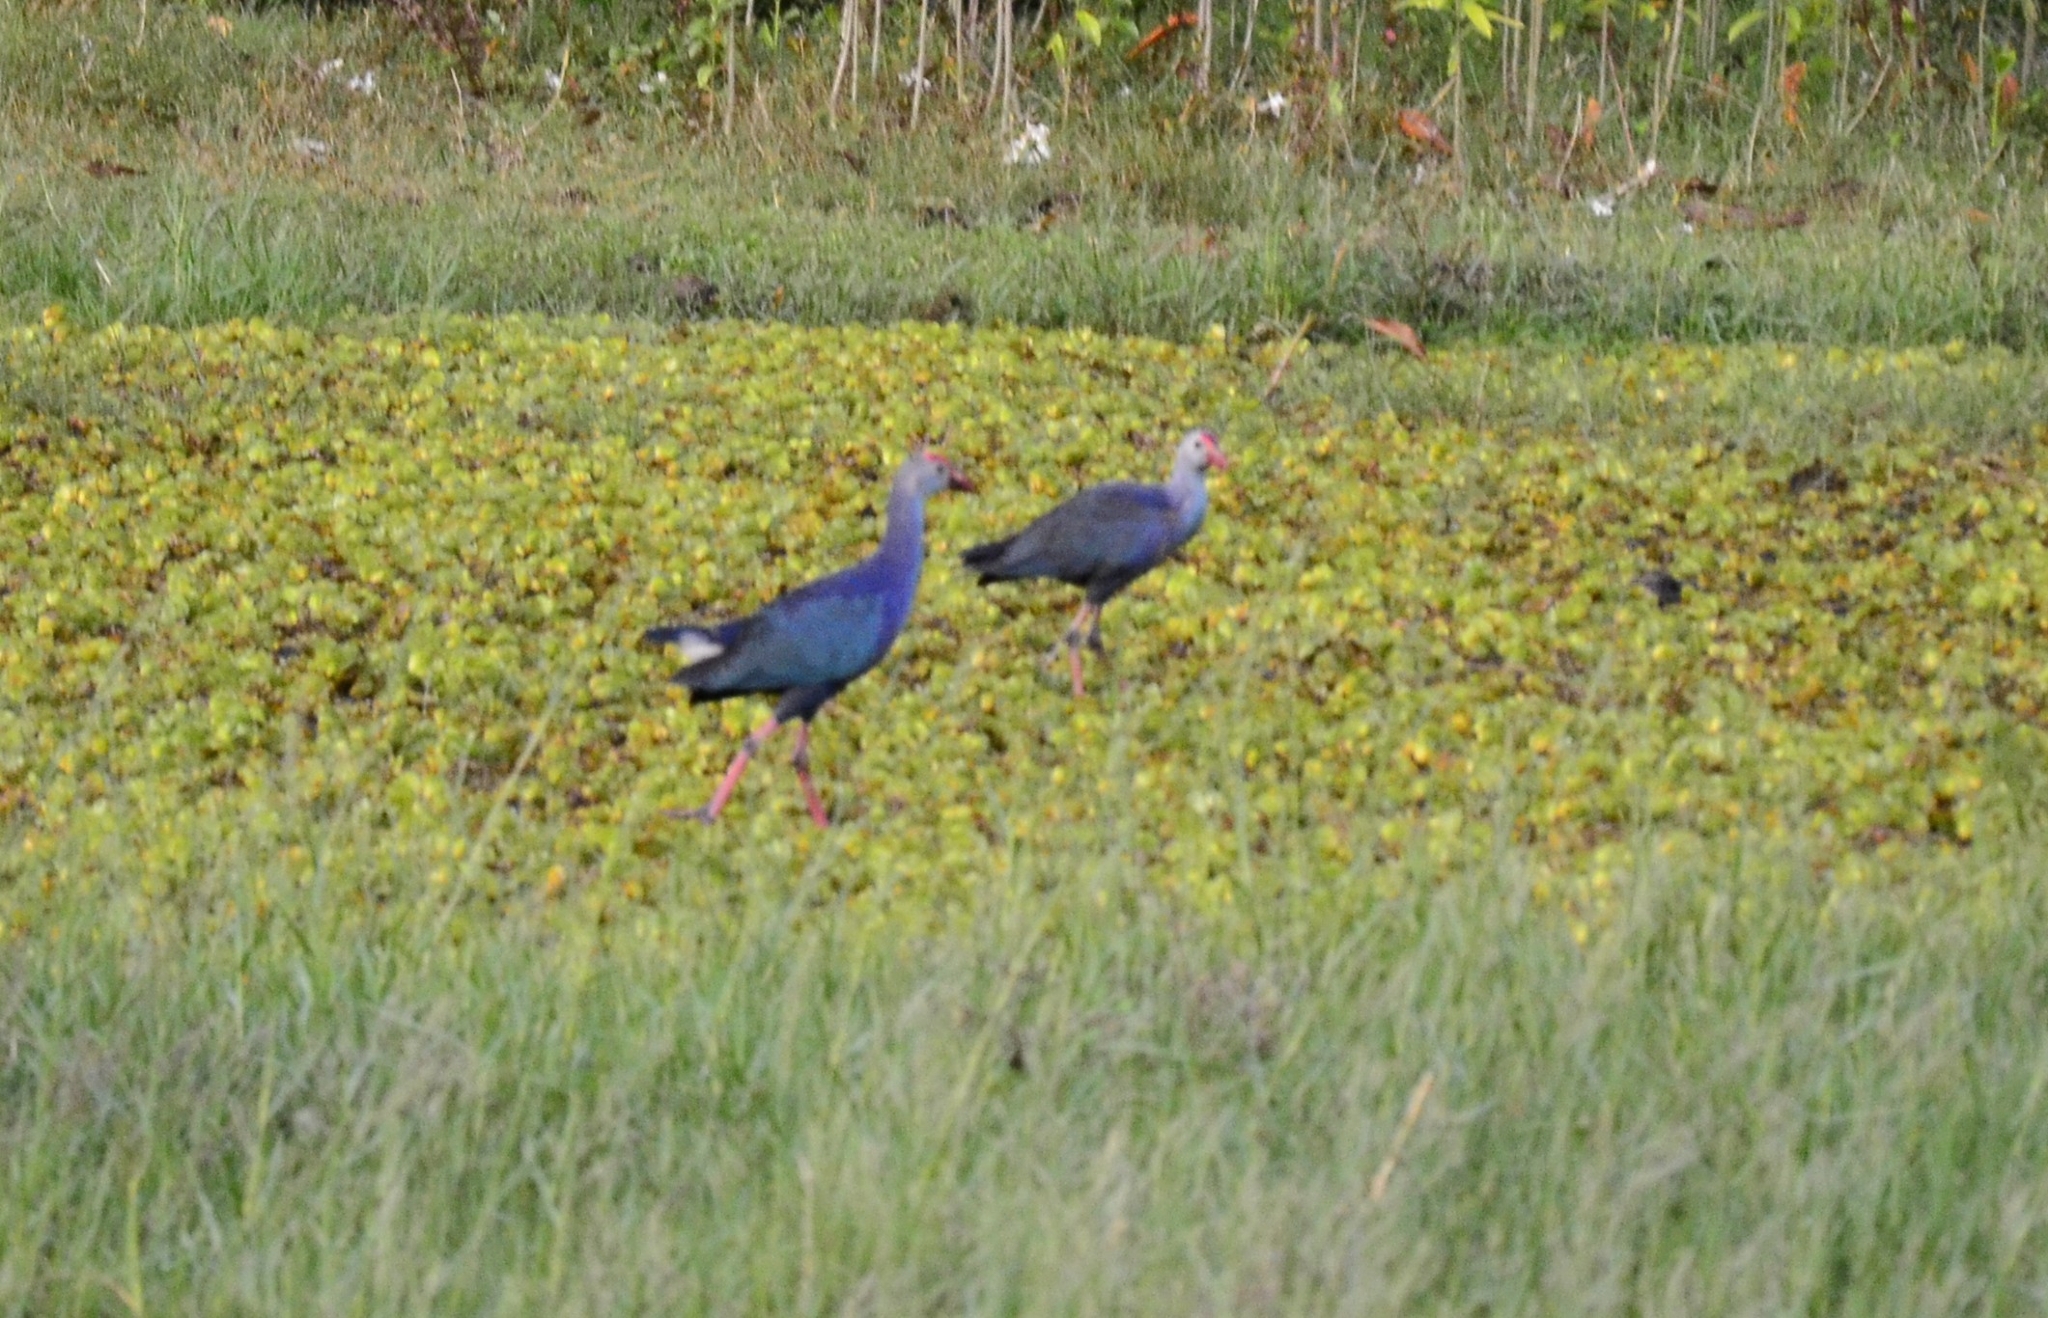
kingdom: Animalia
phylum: Chordata
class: Aves
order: Gruiformes
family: Rallidae
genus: Porphyrio
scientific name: Porphyrio porphyrio
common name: Purple swamphen
